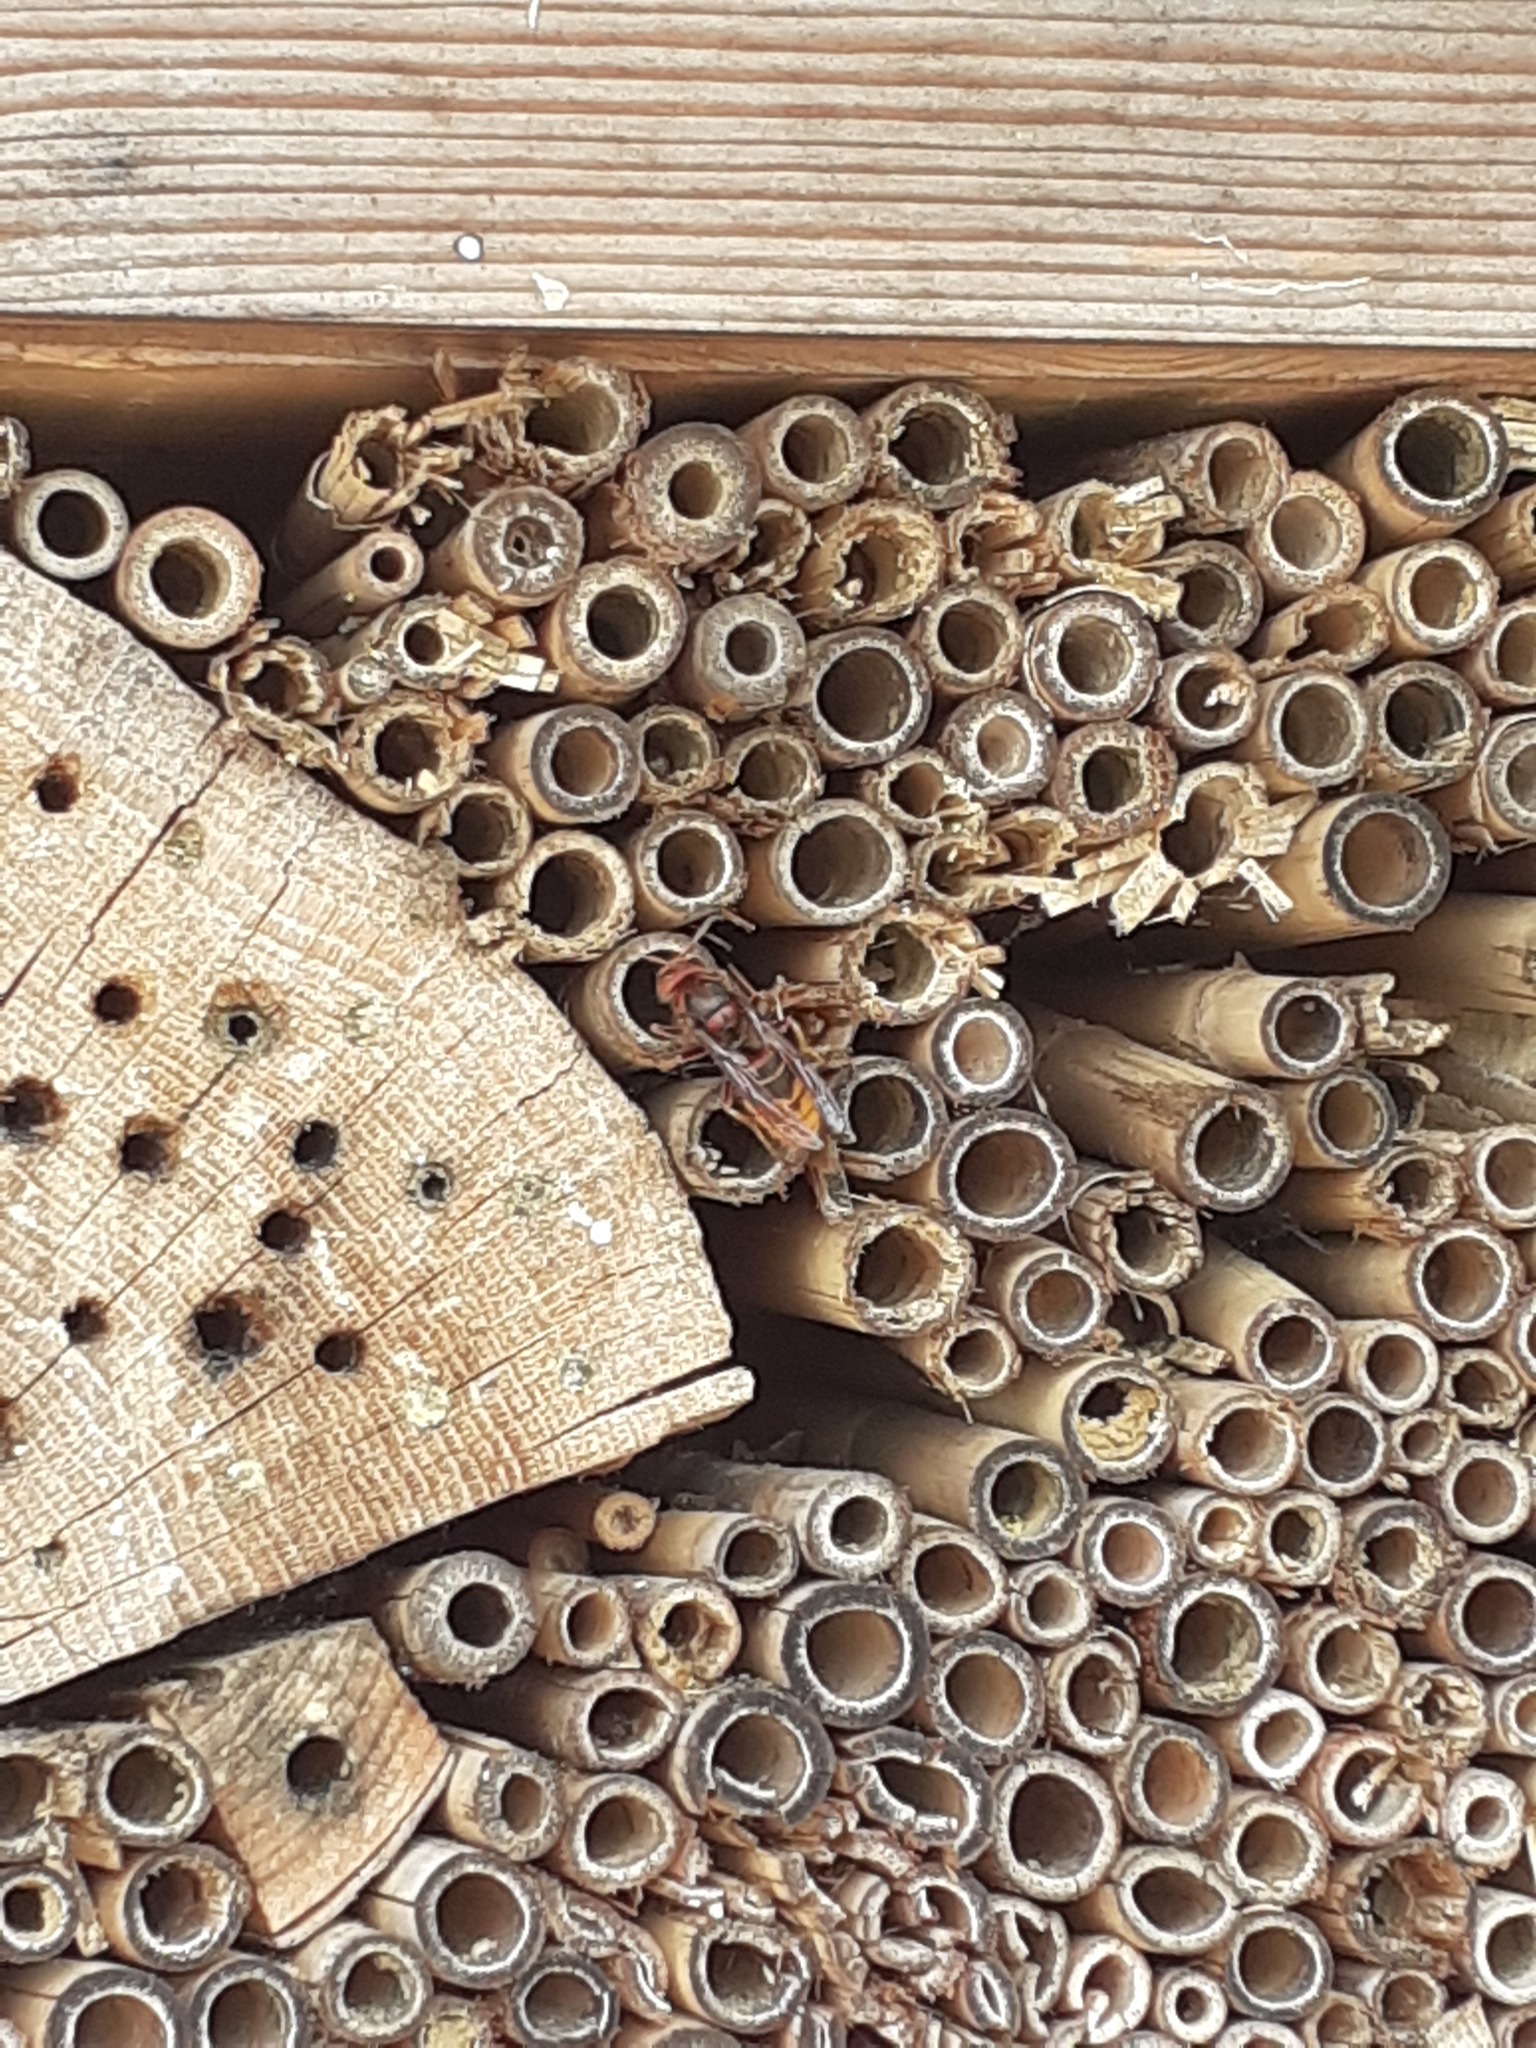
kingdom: Animalia
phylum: Arthropoda
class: Insecta
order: Hymenoptera
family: Vespidae
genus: Vespa
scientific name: Vespa crabro
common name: Hornet
